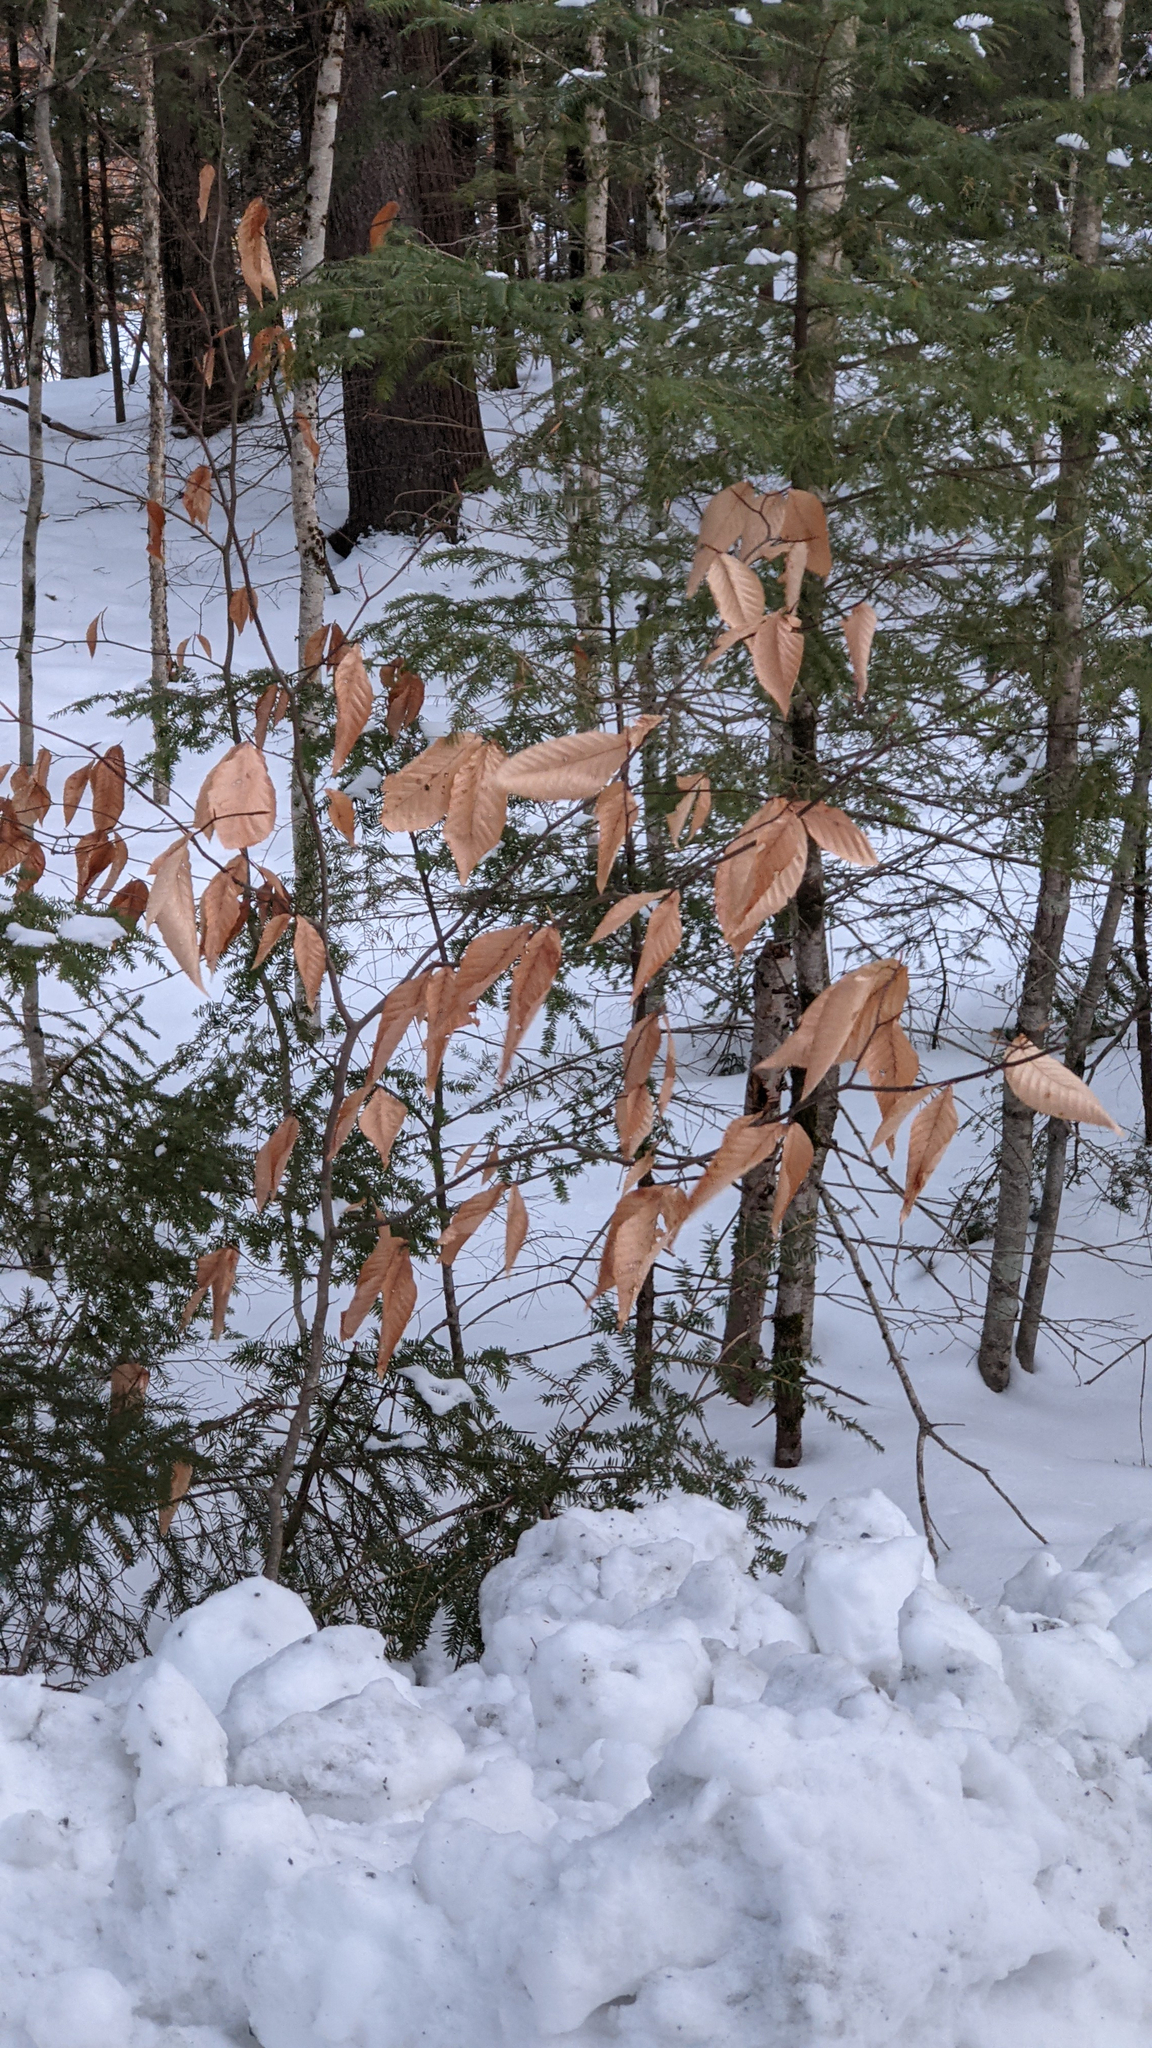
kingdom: Plantae
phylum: Tracheophyta
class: Magnoliopsida
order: Fagales
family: Fagaceae
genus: Fagus
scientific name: Fagus grandifolia
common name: American beech
